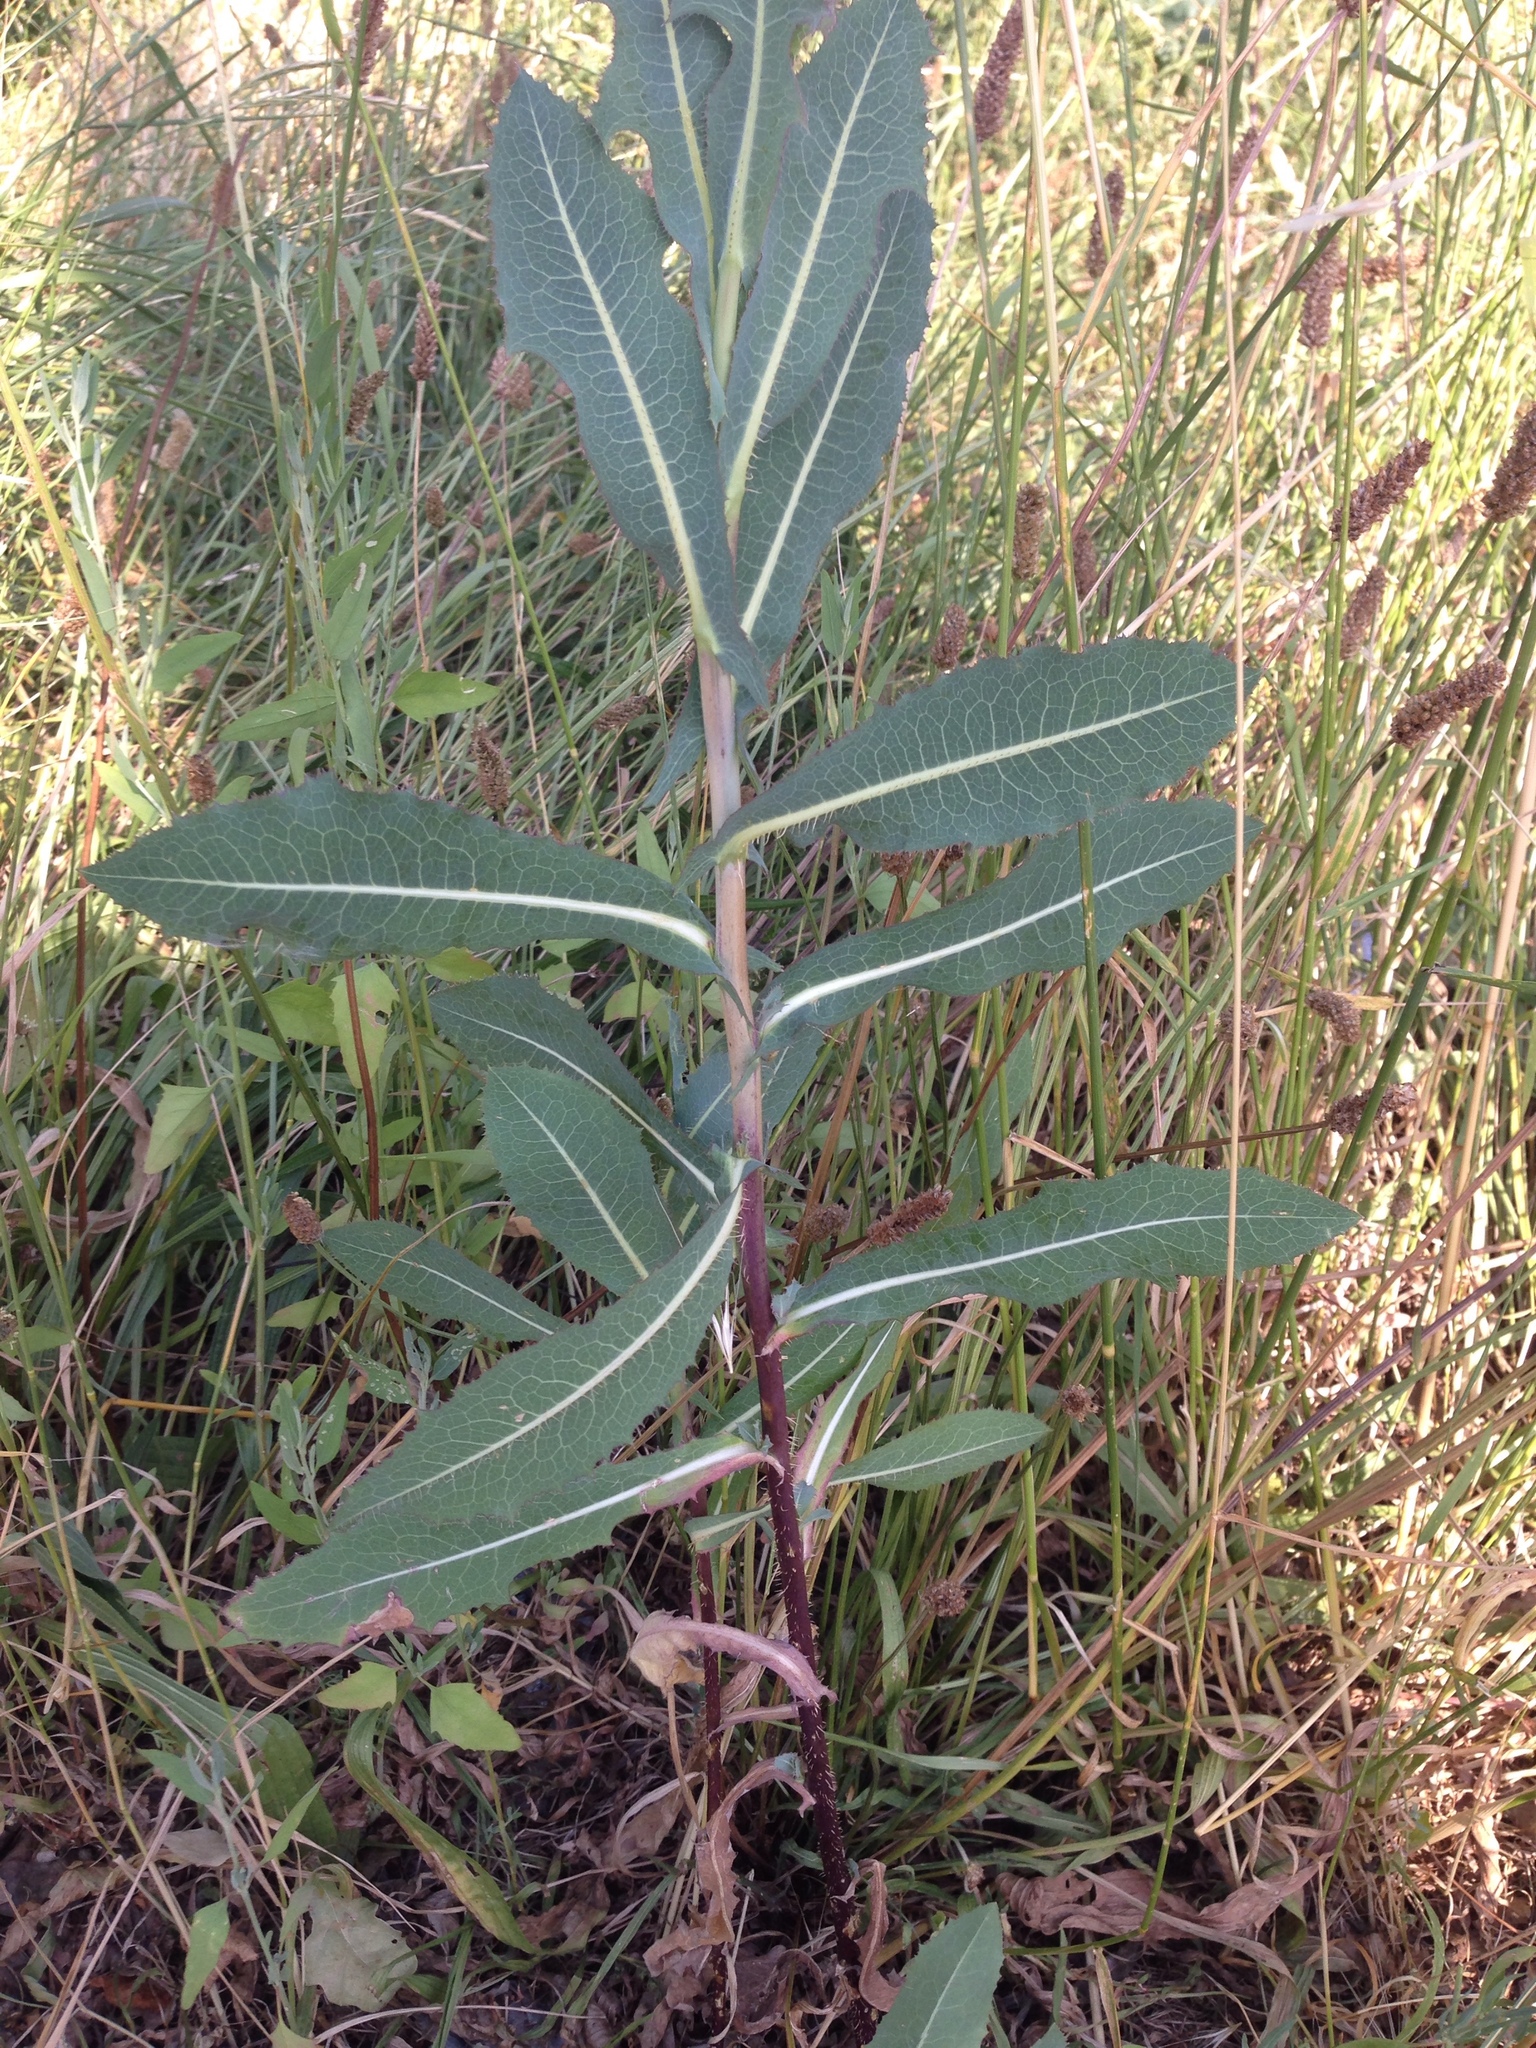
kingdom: Plantae
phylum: Tracheophyta
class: Magnoliopsida
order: Asterales
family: Asteraceae
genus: Lactuca
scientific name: Lactuca serriola
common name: Prickly lettuce
